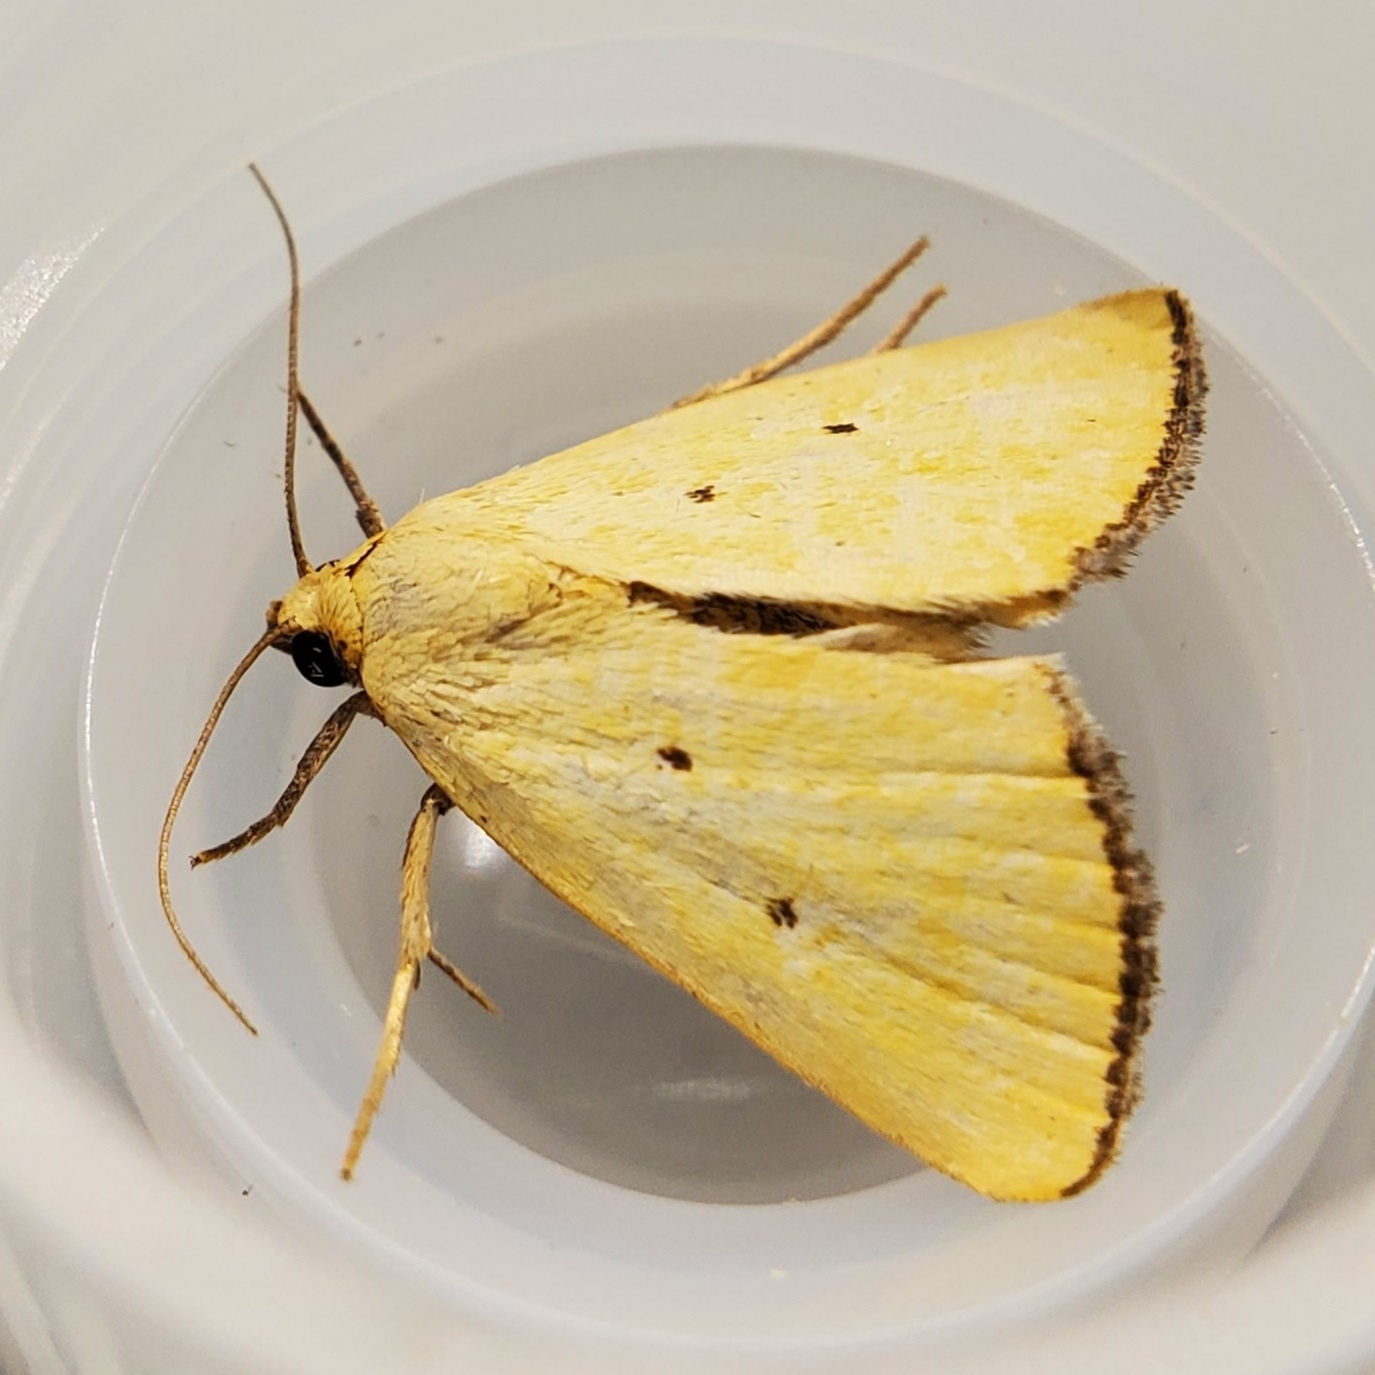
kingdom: Animalia
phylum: Arthropoda
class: Insecta
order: Lepidoptera
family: Noctuidae
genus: Marimatha
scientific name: Marimatha nigrofimbria
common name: Black-bordered lemon moth
